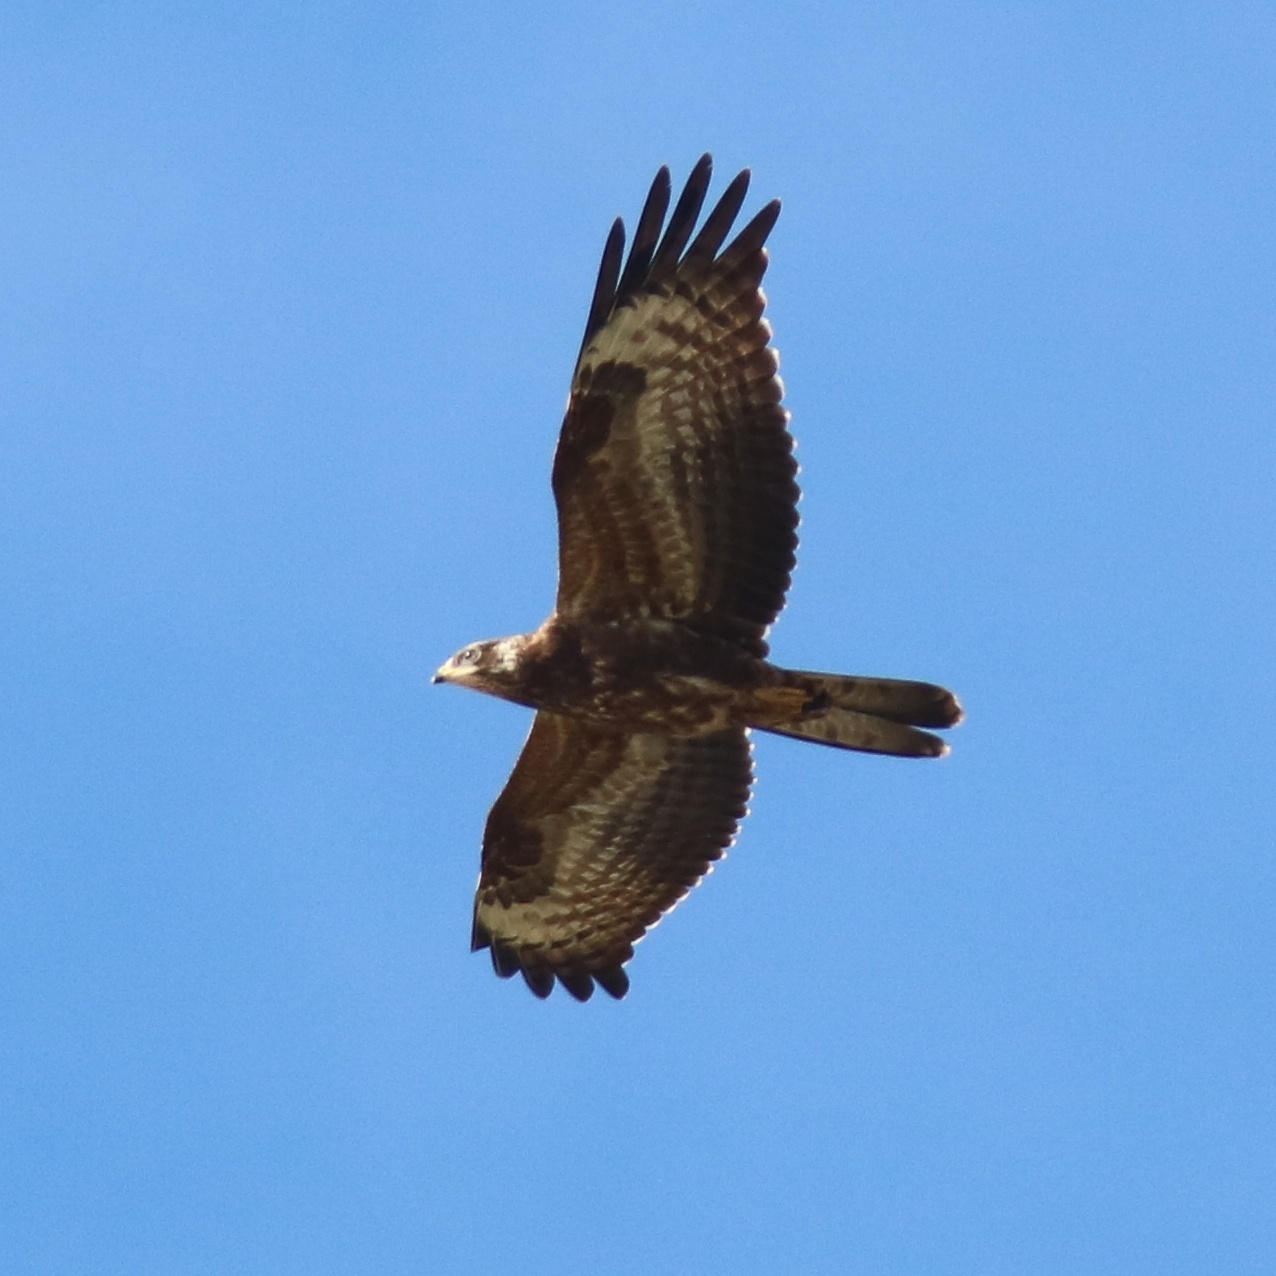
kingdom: Animalia
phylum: Chordata
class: Aves
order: Accipitriformes
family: Accipitridae
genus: Pernis
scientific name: Pernis apivorus
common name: European honey buzzard
